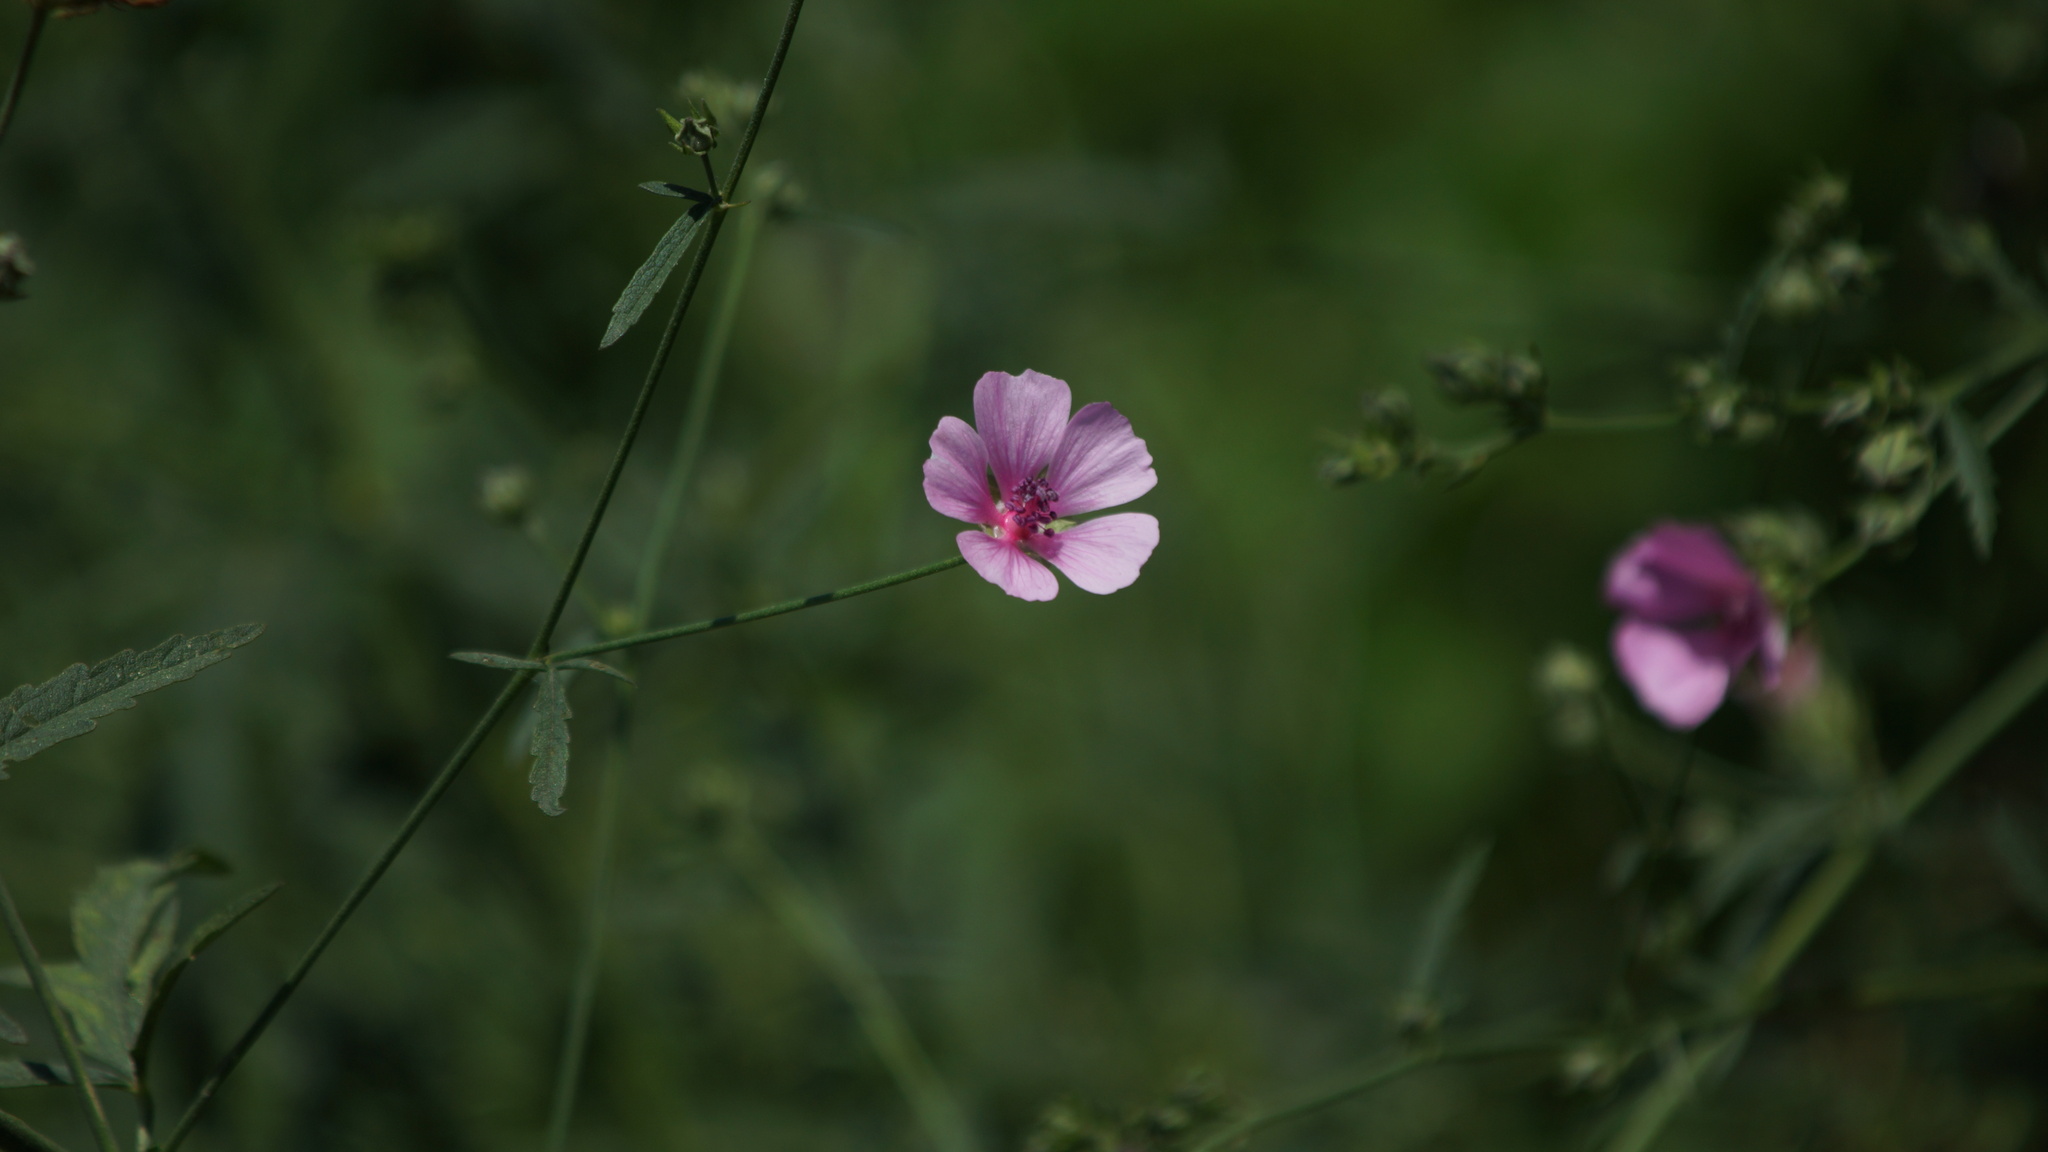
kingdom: Plantae
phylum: Tracheophyta
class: Magnoliopsida
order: Malvales
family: Malvaceae
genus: Althaea
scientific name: Althaea cannabina
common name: Palm-leaf marshmallow
